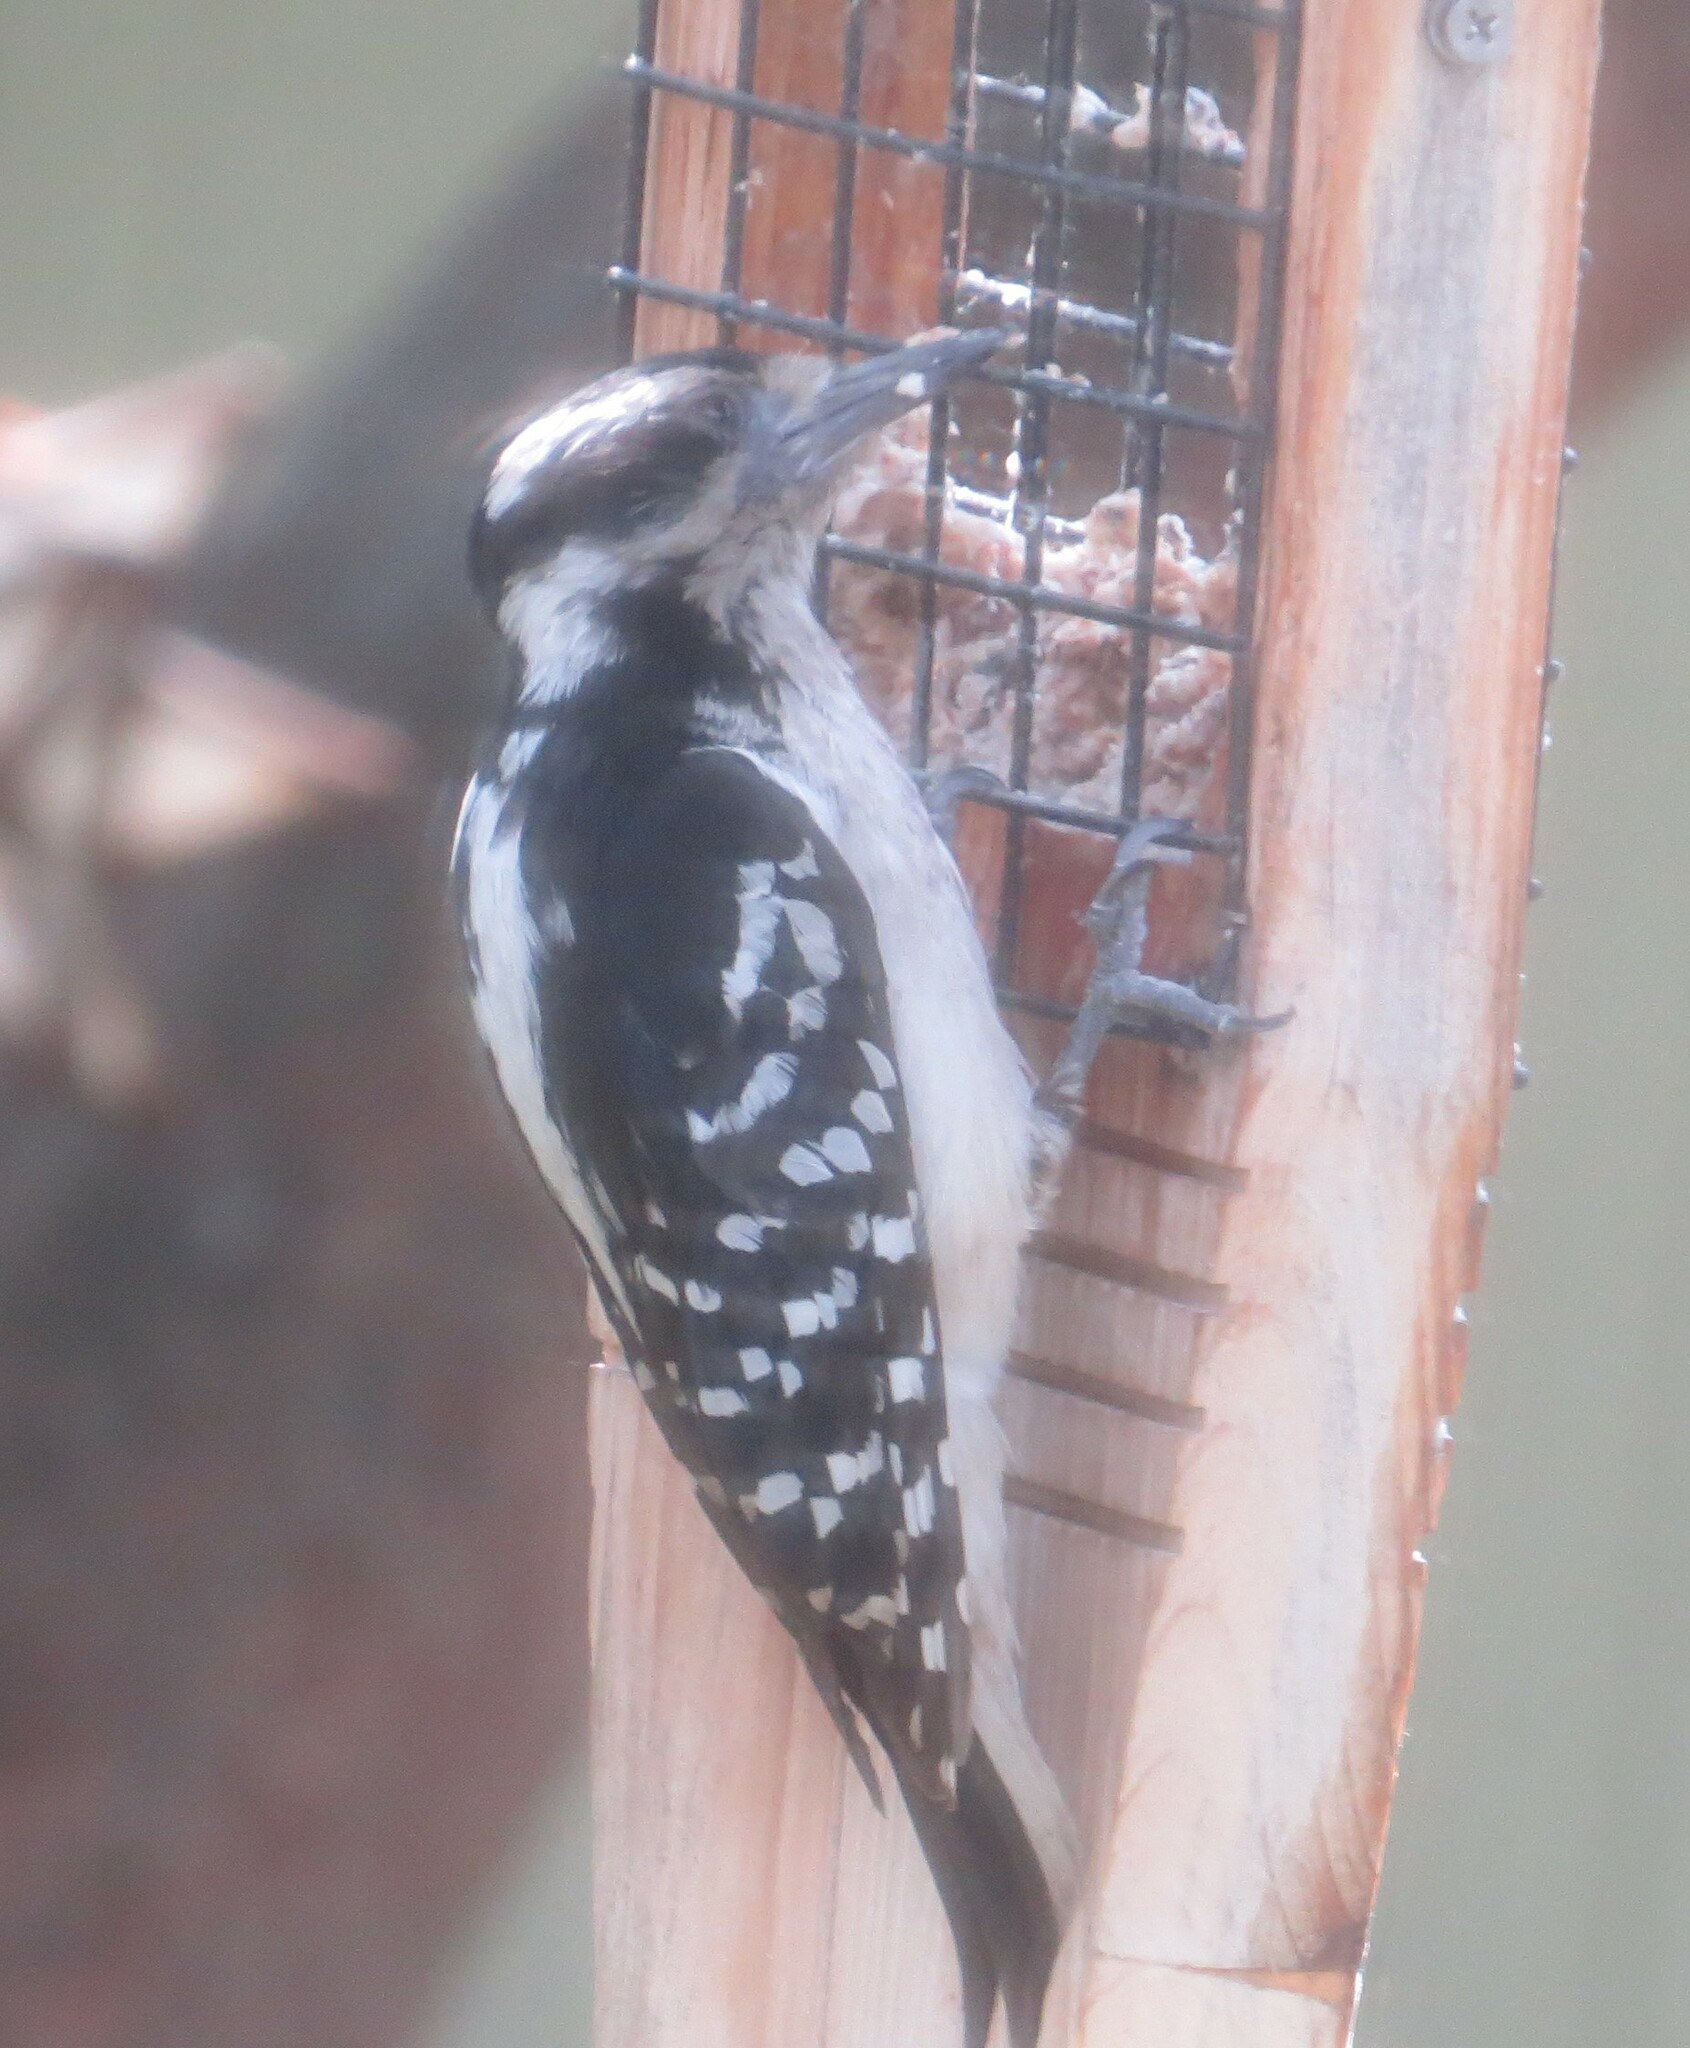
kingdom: Animalia
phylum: Chordata
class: Aves
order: Piciformes
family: Picidae
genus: Leuconotopicus
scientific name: Leuconotopicus villosus
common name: Hairy woodpecker
